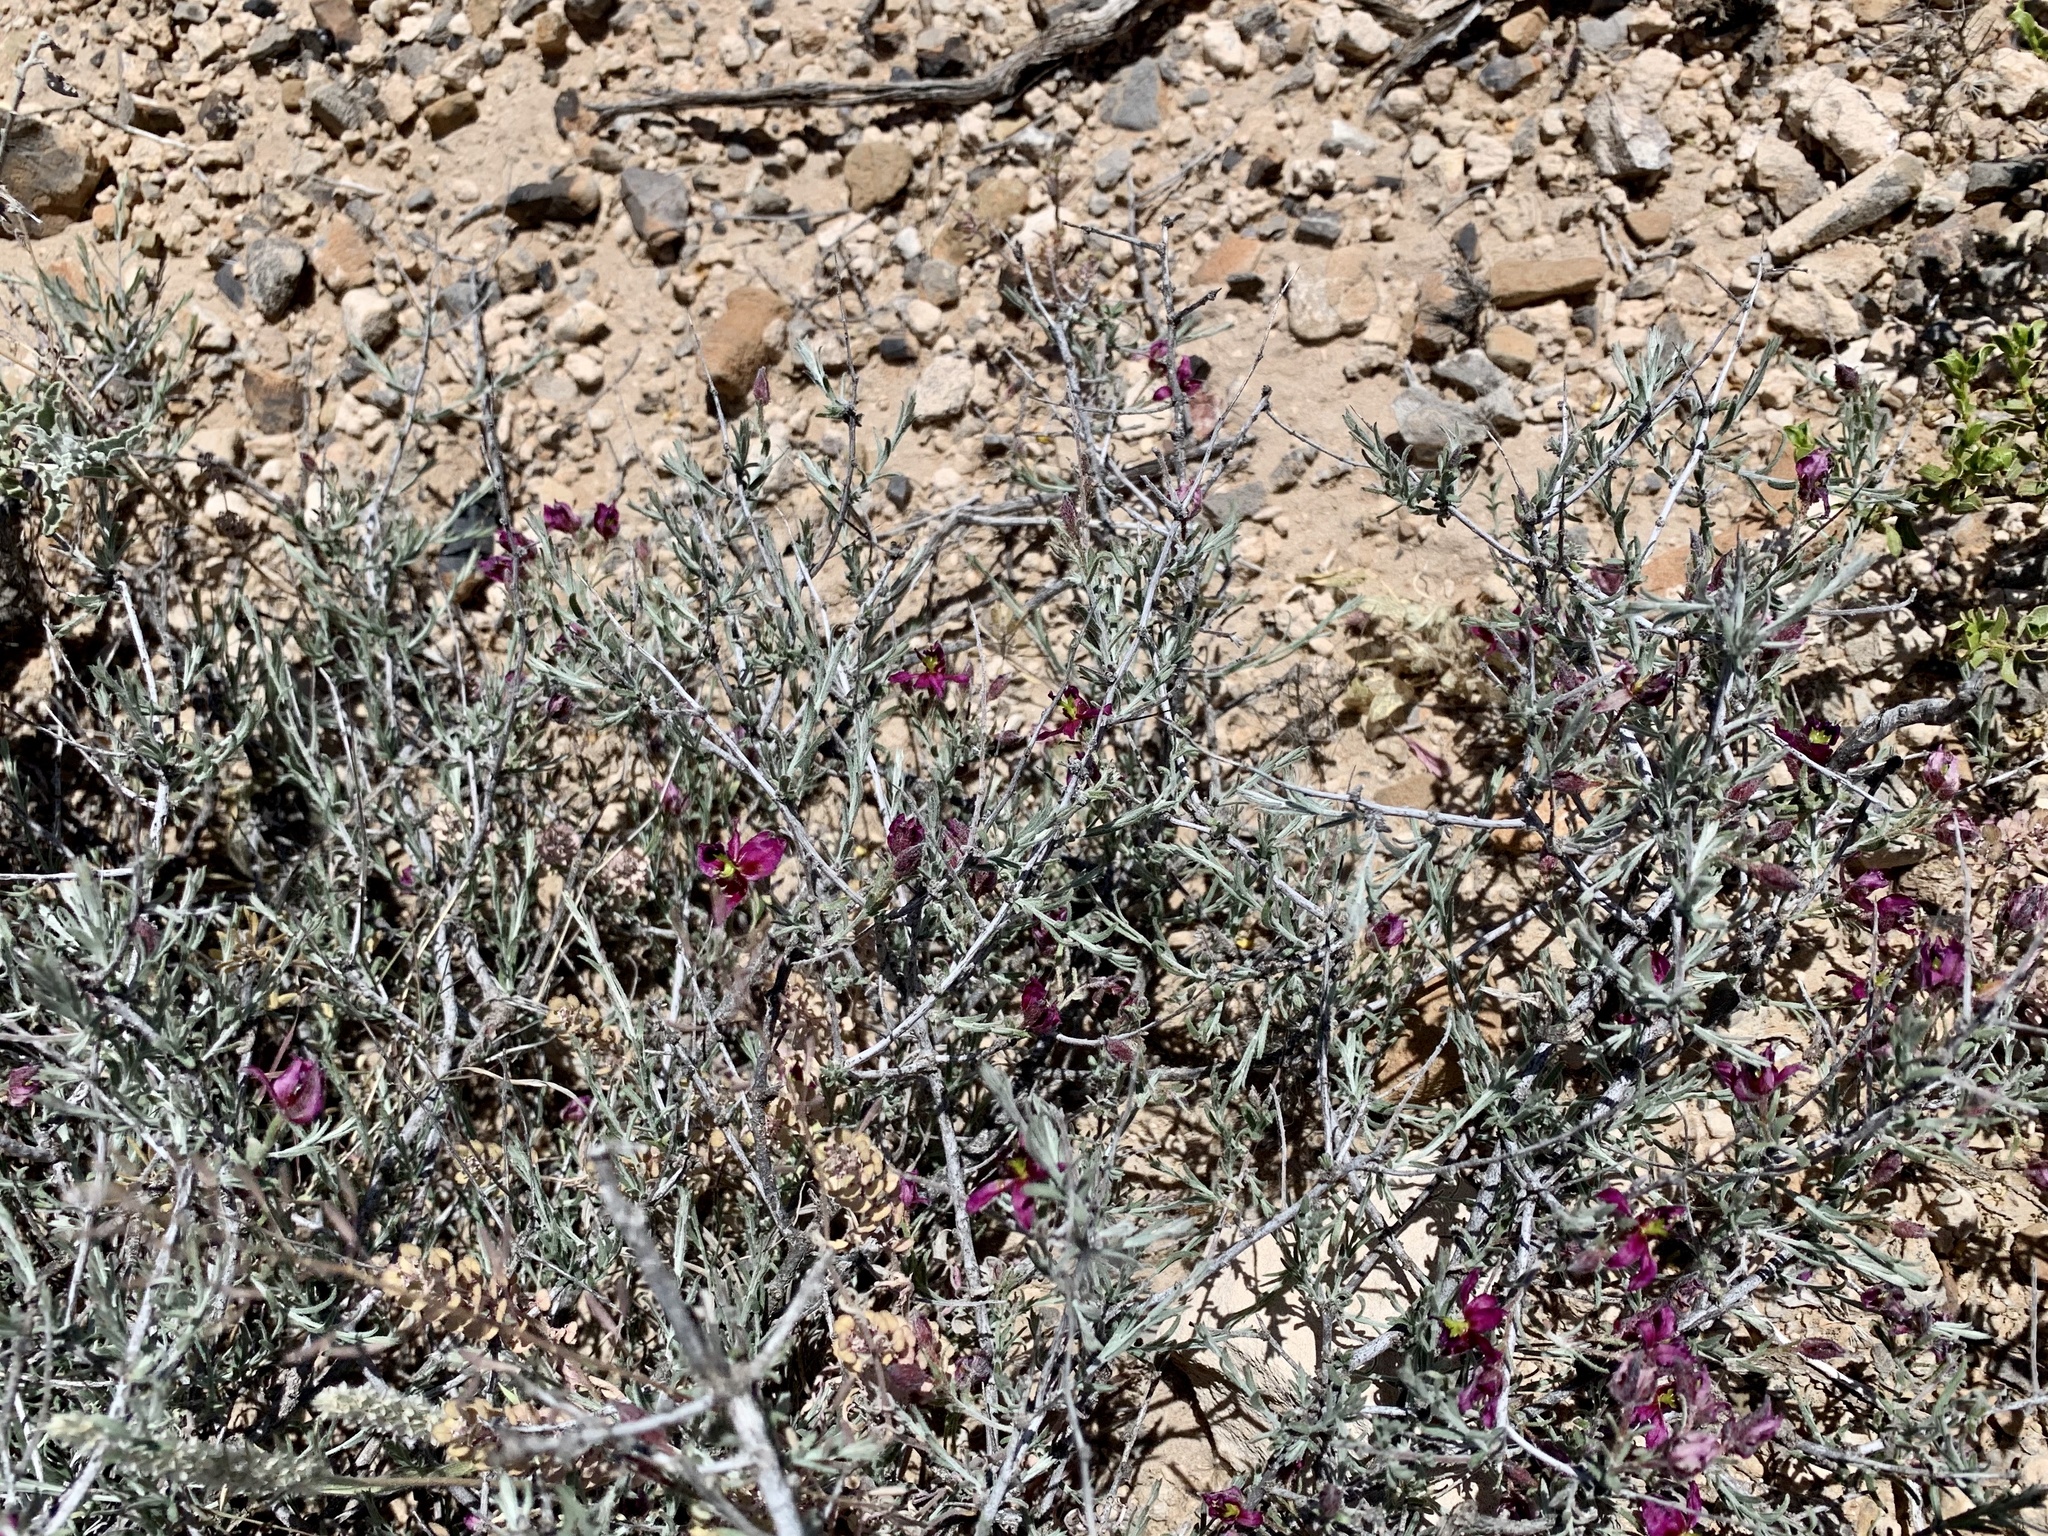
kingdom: Plantae
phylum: Tracheophyta
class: Magnoliopsida
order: Zygophyllales
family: Krameriaceae
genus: Krameria
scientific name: Krameria erecta
